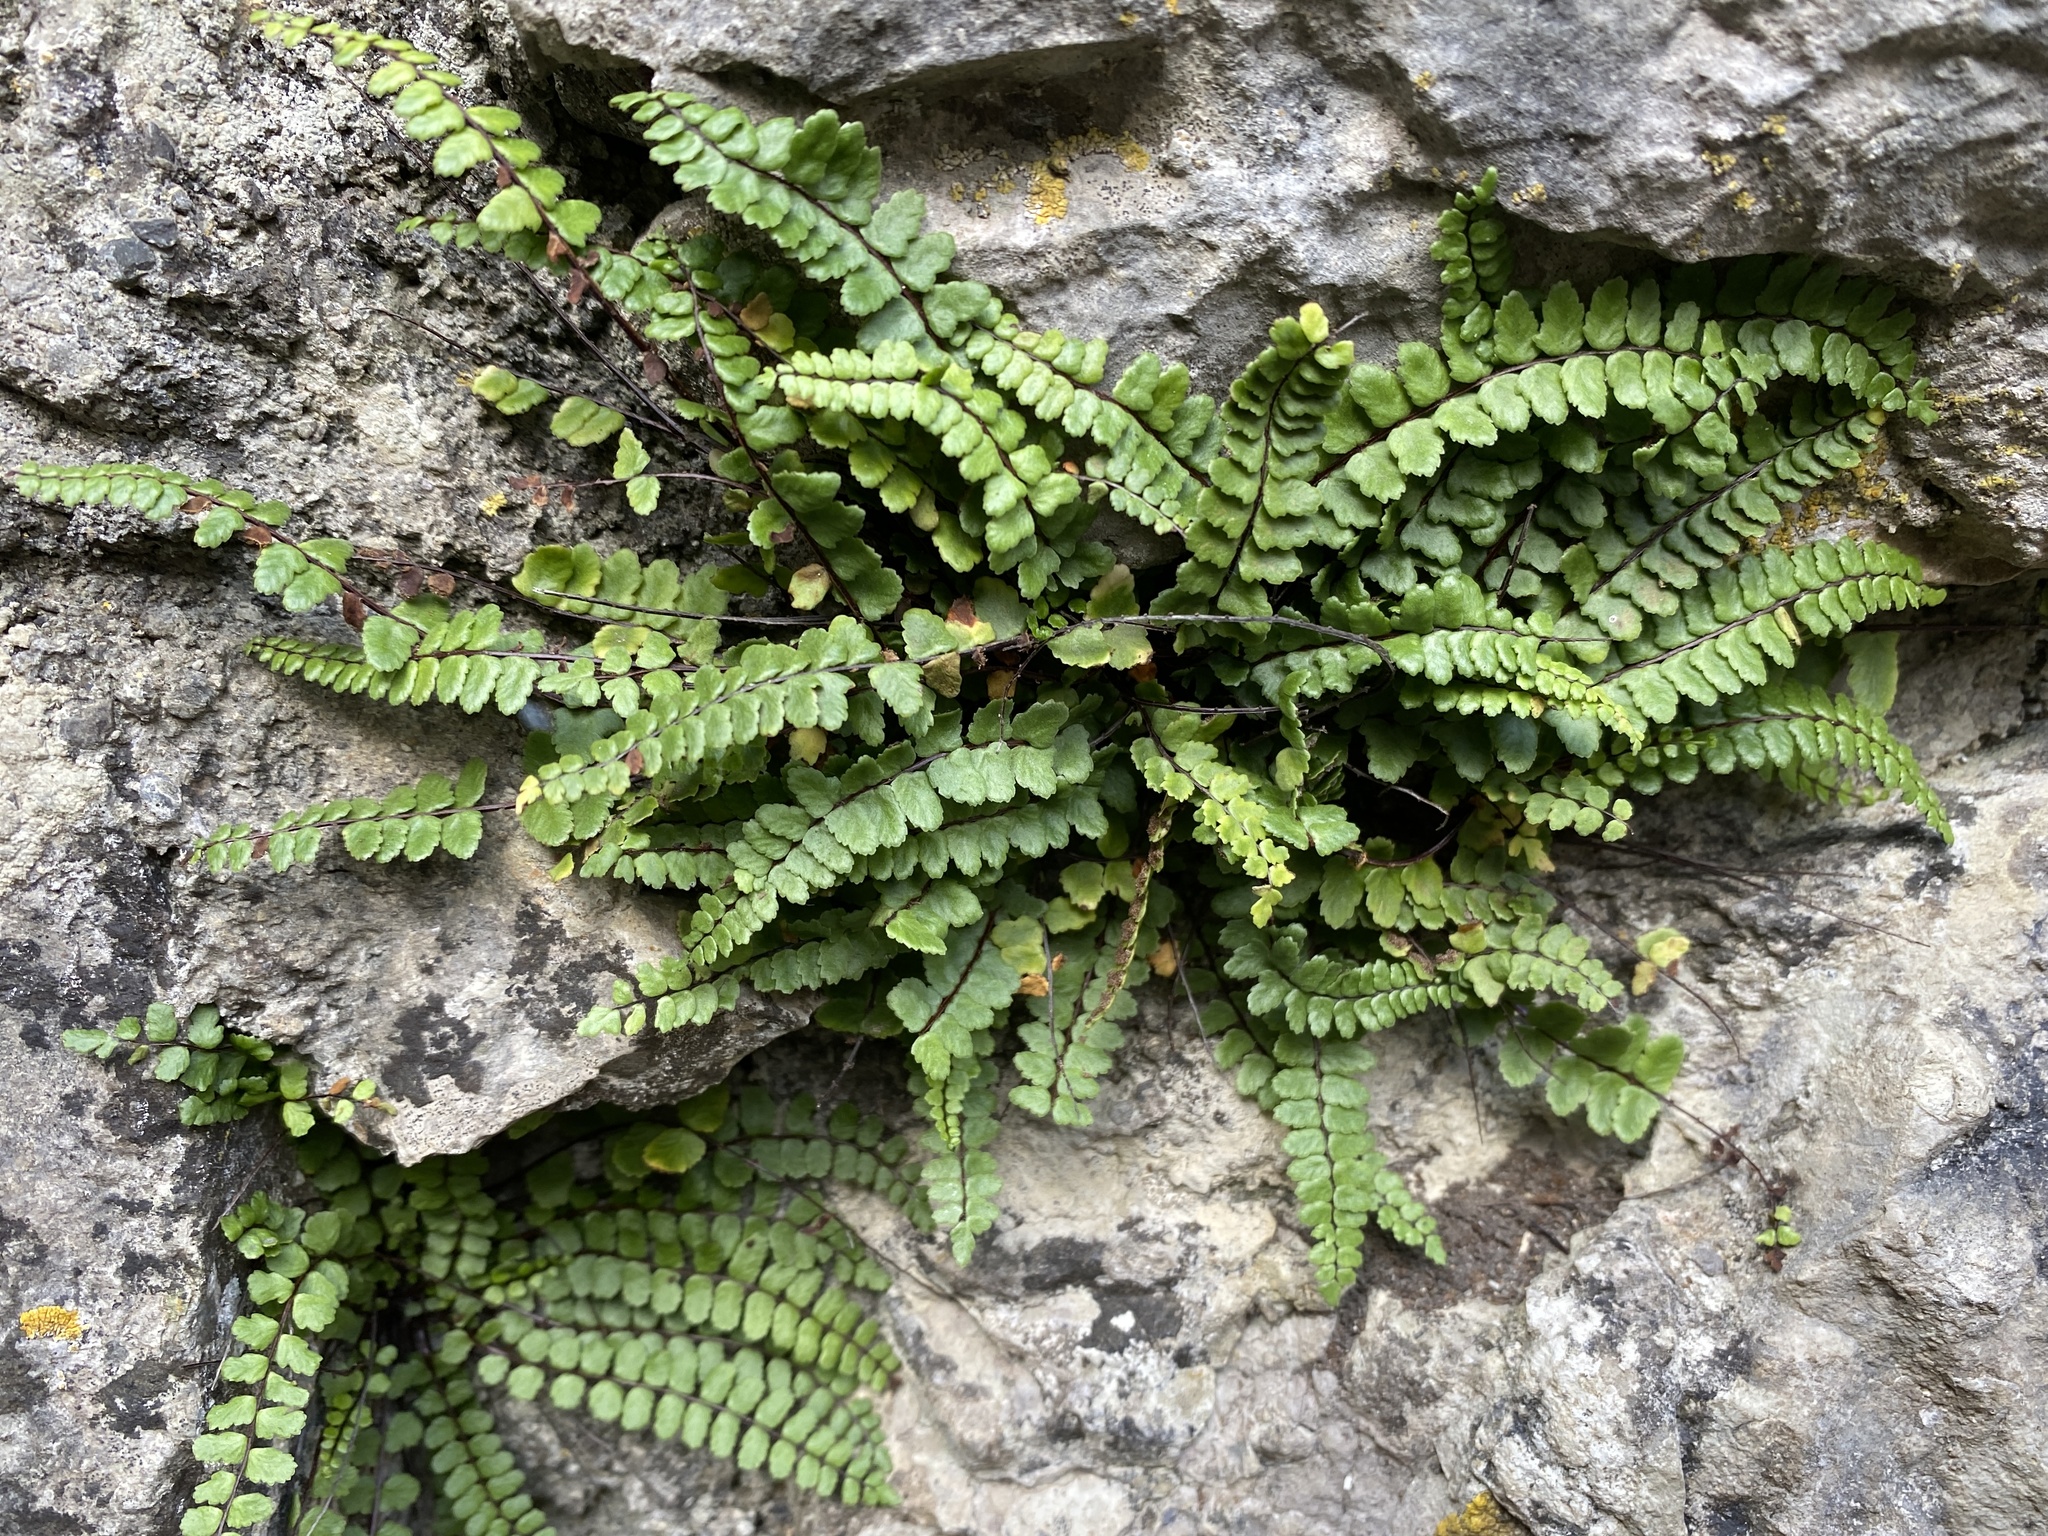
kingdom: Plantae
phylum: Tracheophyta
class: Polypodiopsida
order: Polypodiales
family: Aspleniaceae
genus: Asplenium
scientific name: Asplenium trichomanes
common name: Maidenhair spleenwort
